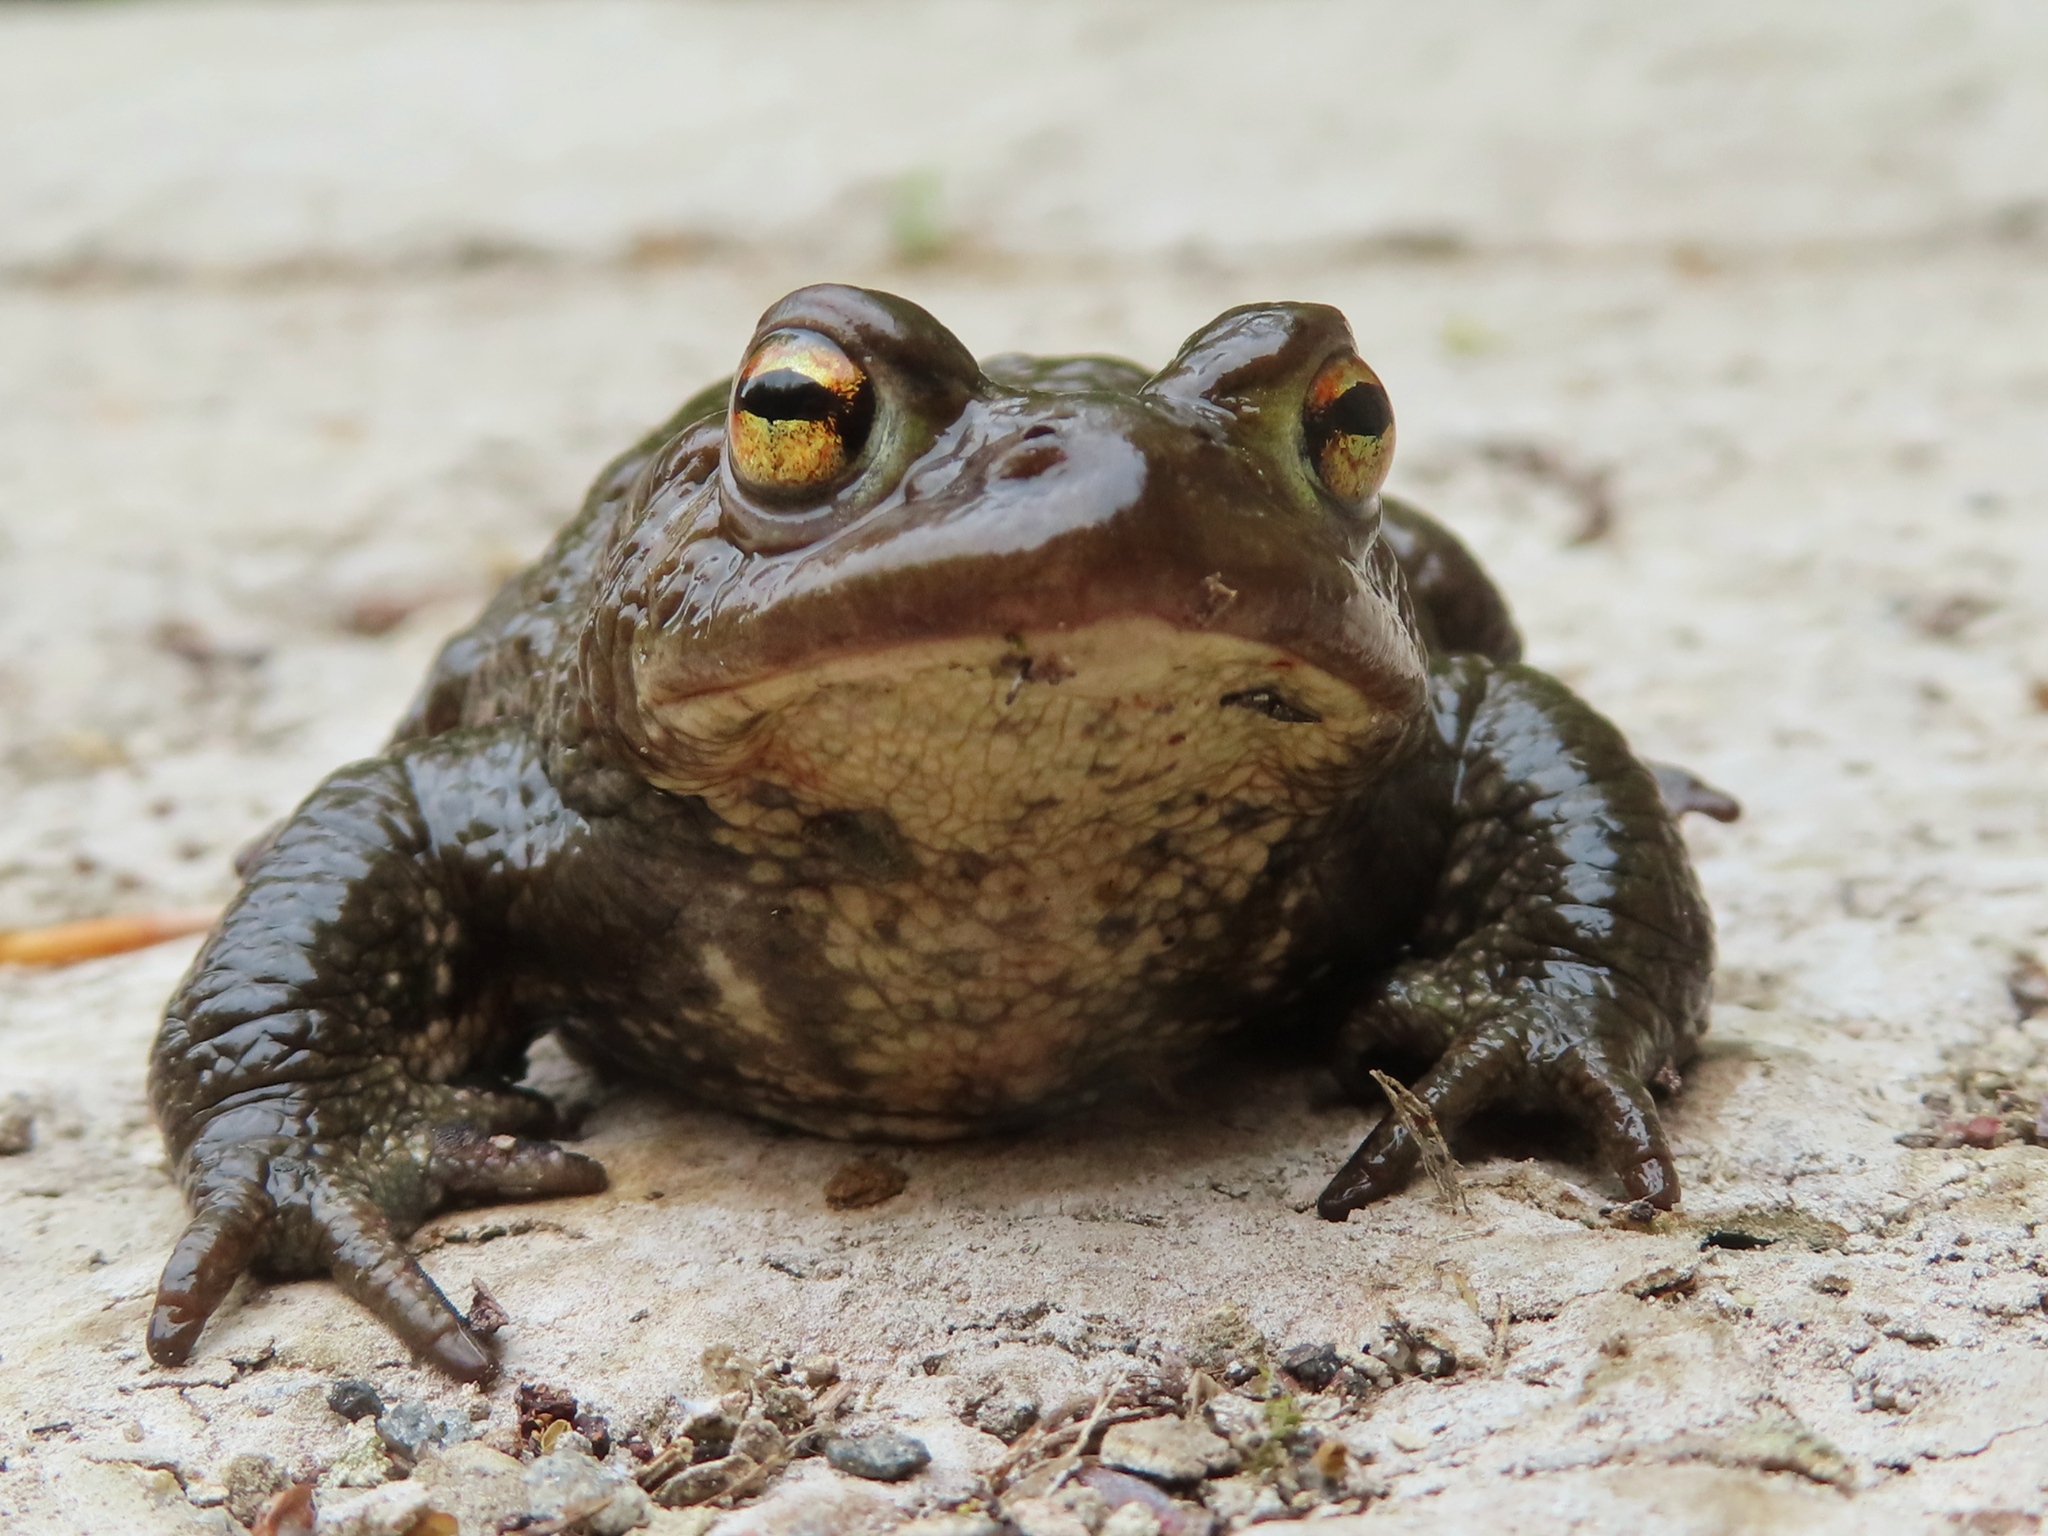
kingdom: Animalia
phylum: Chordata
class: Amphibia
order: Anura
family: Bufonidae
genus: Bufo
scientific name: Bufo bufo
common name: Common toad
